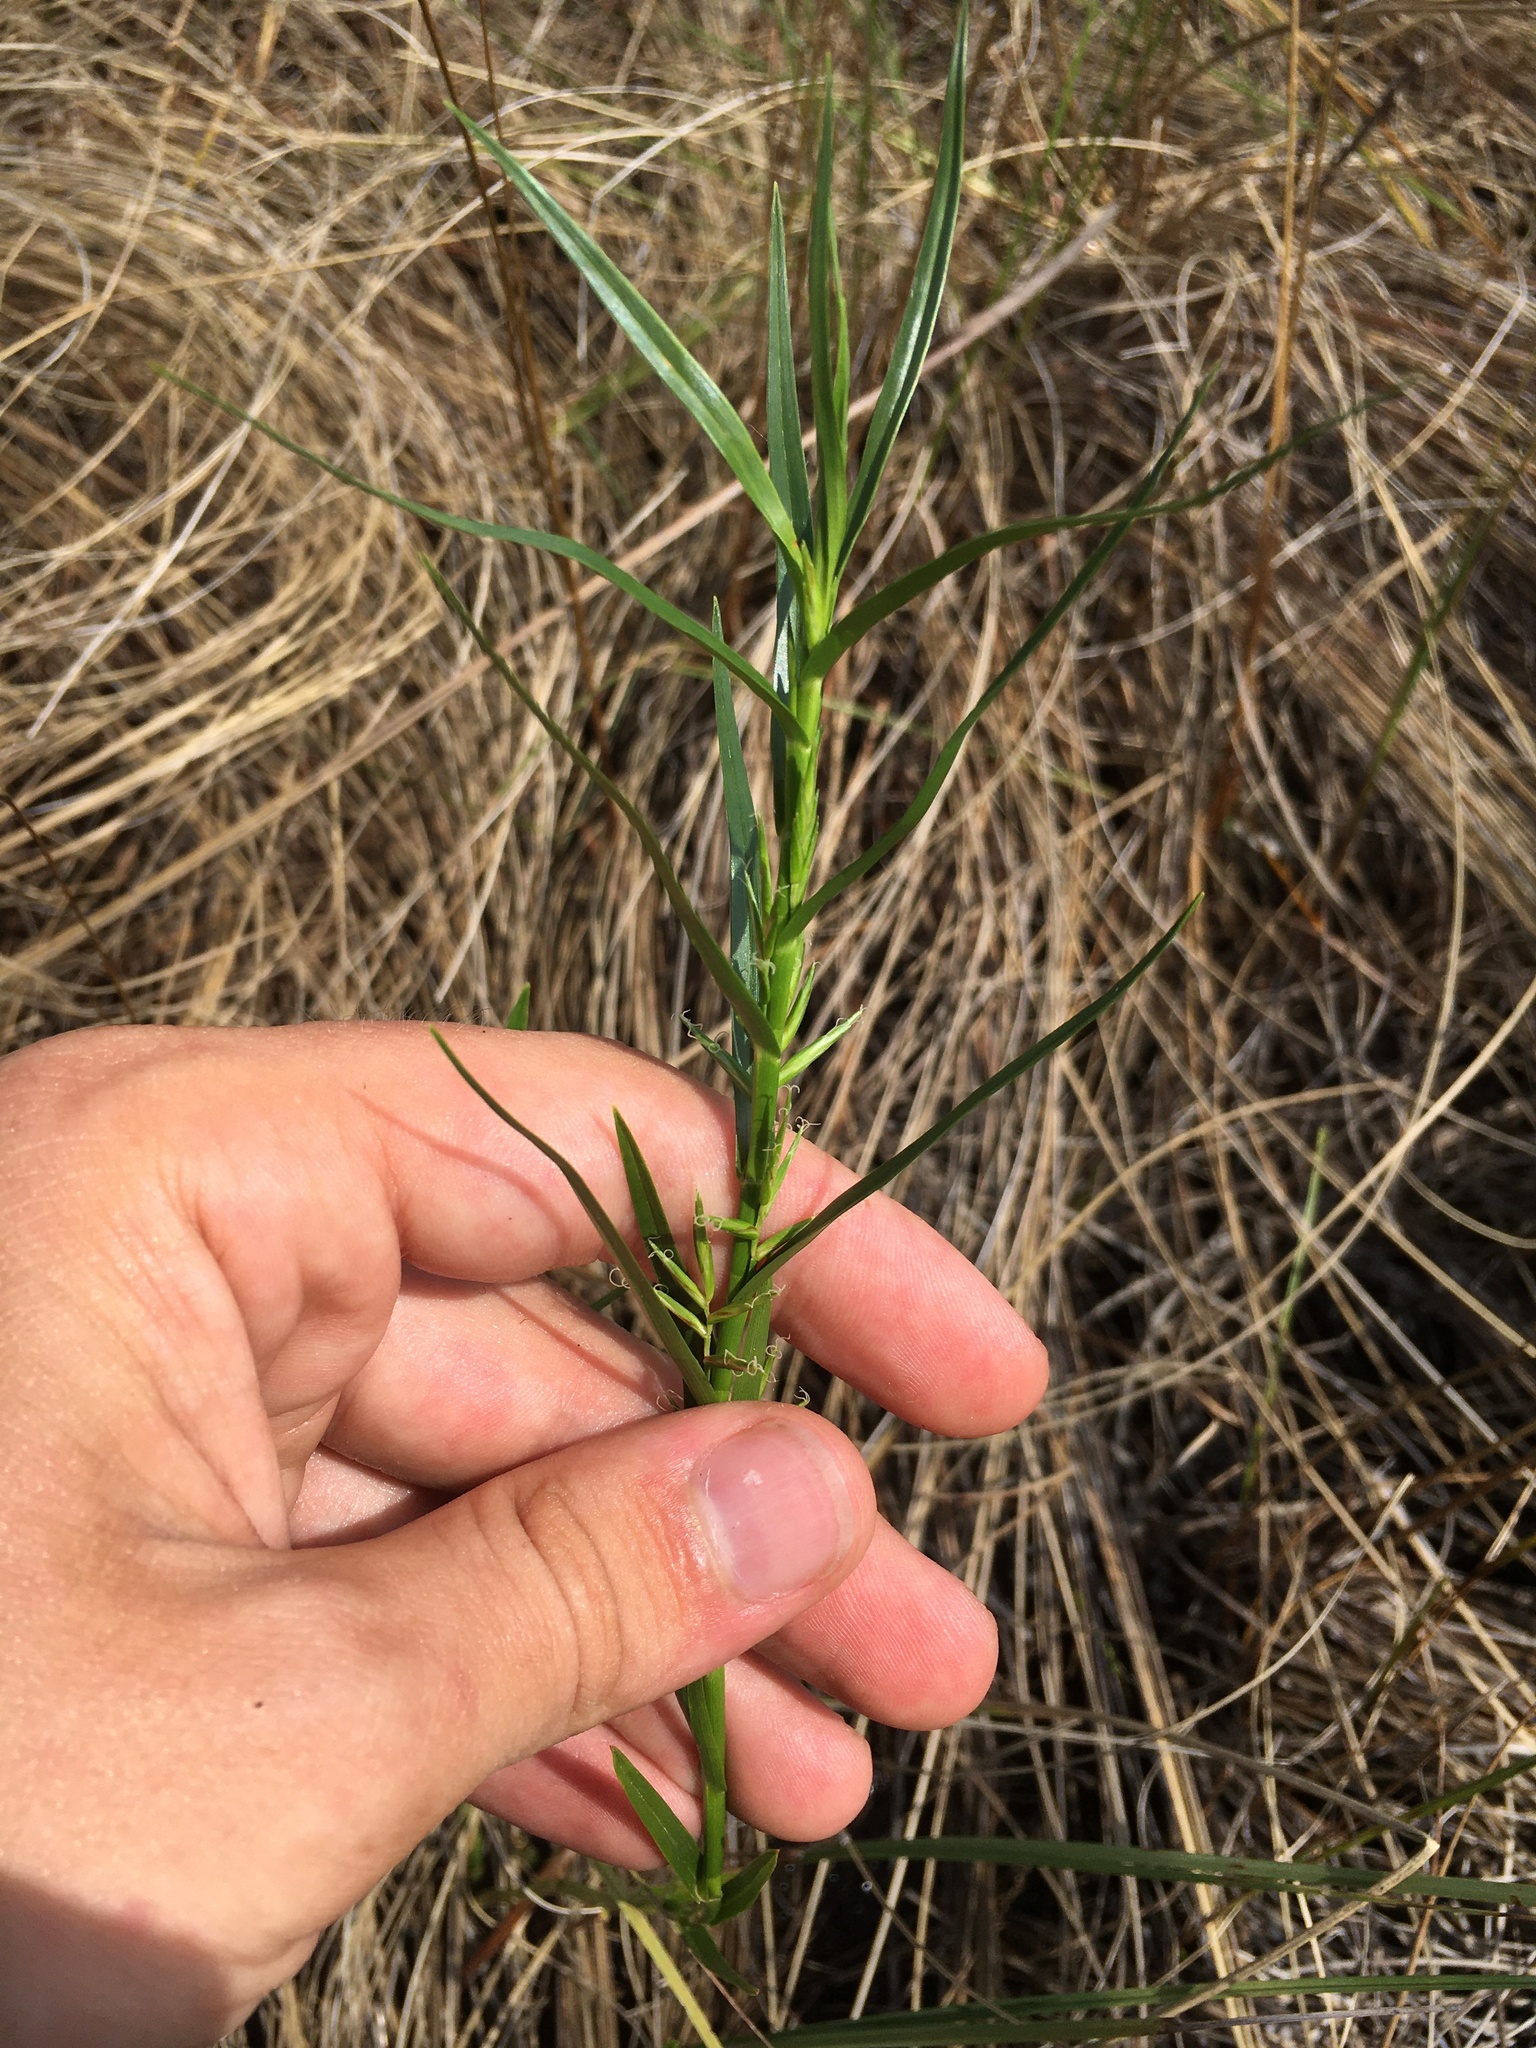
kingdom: Plantae
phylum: Tracheophyta
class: Liliopsida
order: Poales
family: Cyperaceae
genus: Dulichium
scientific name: Dulichium arundinaceum
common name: Three-way sedge
